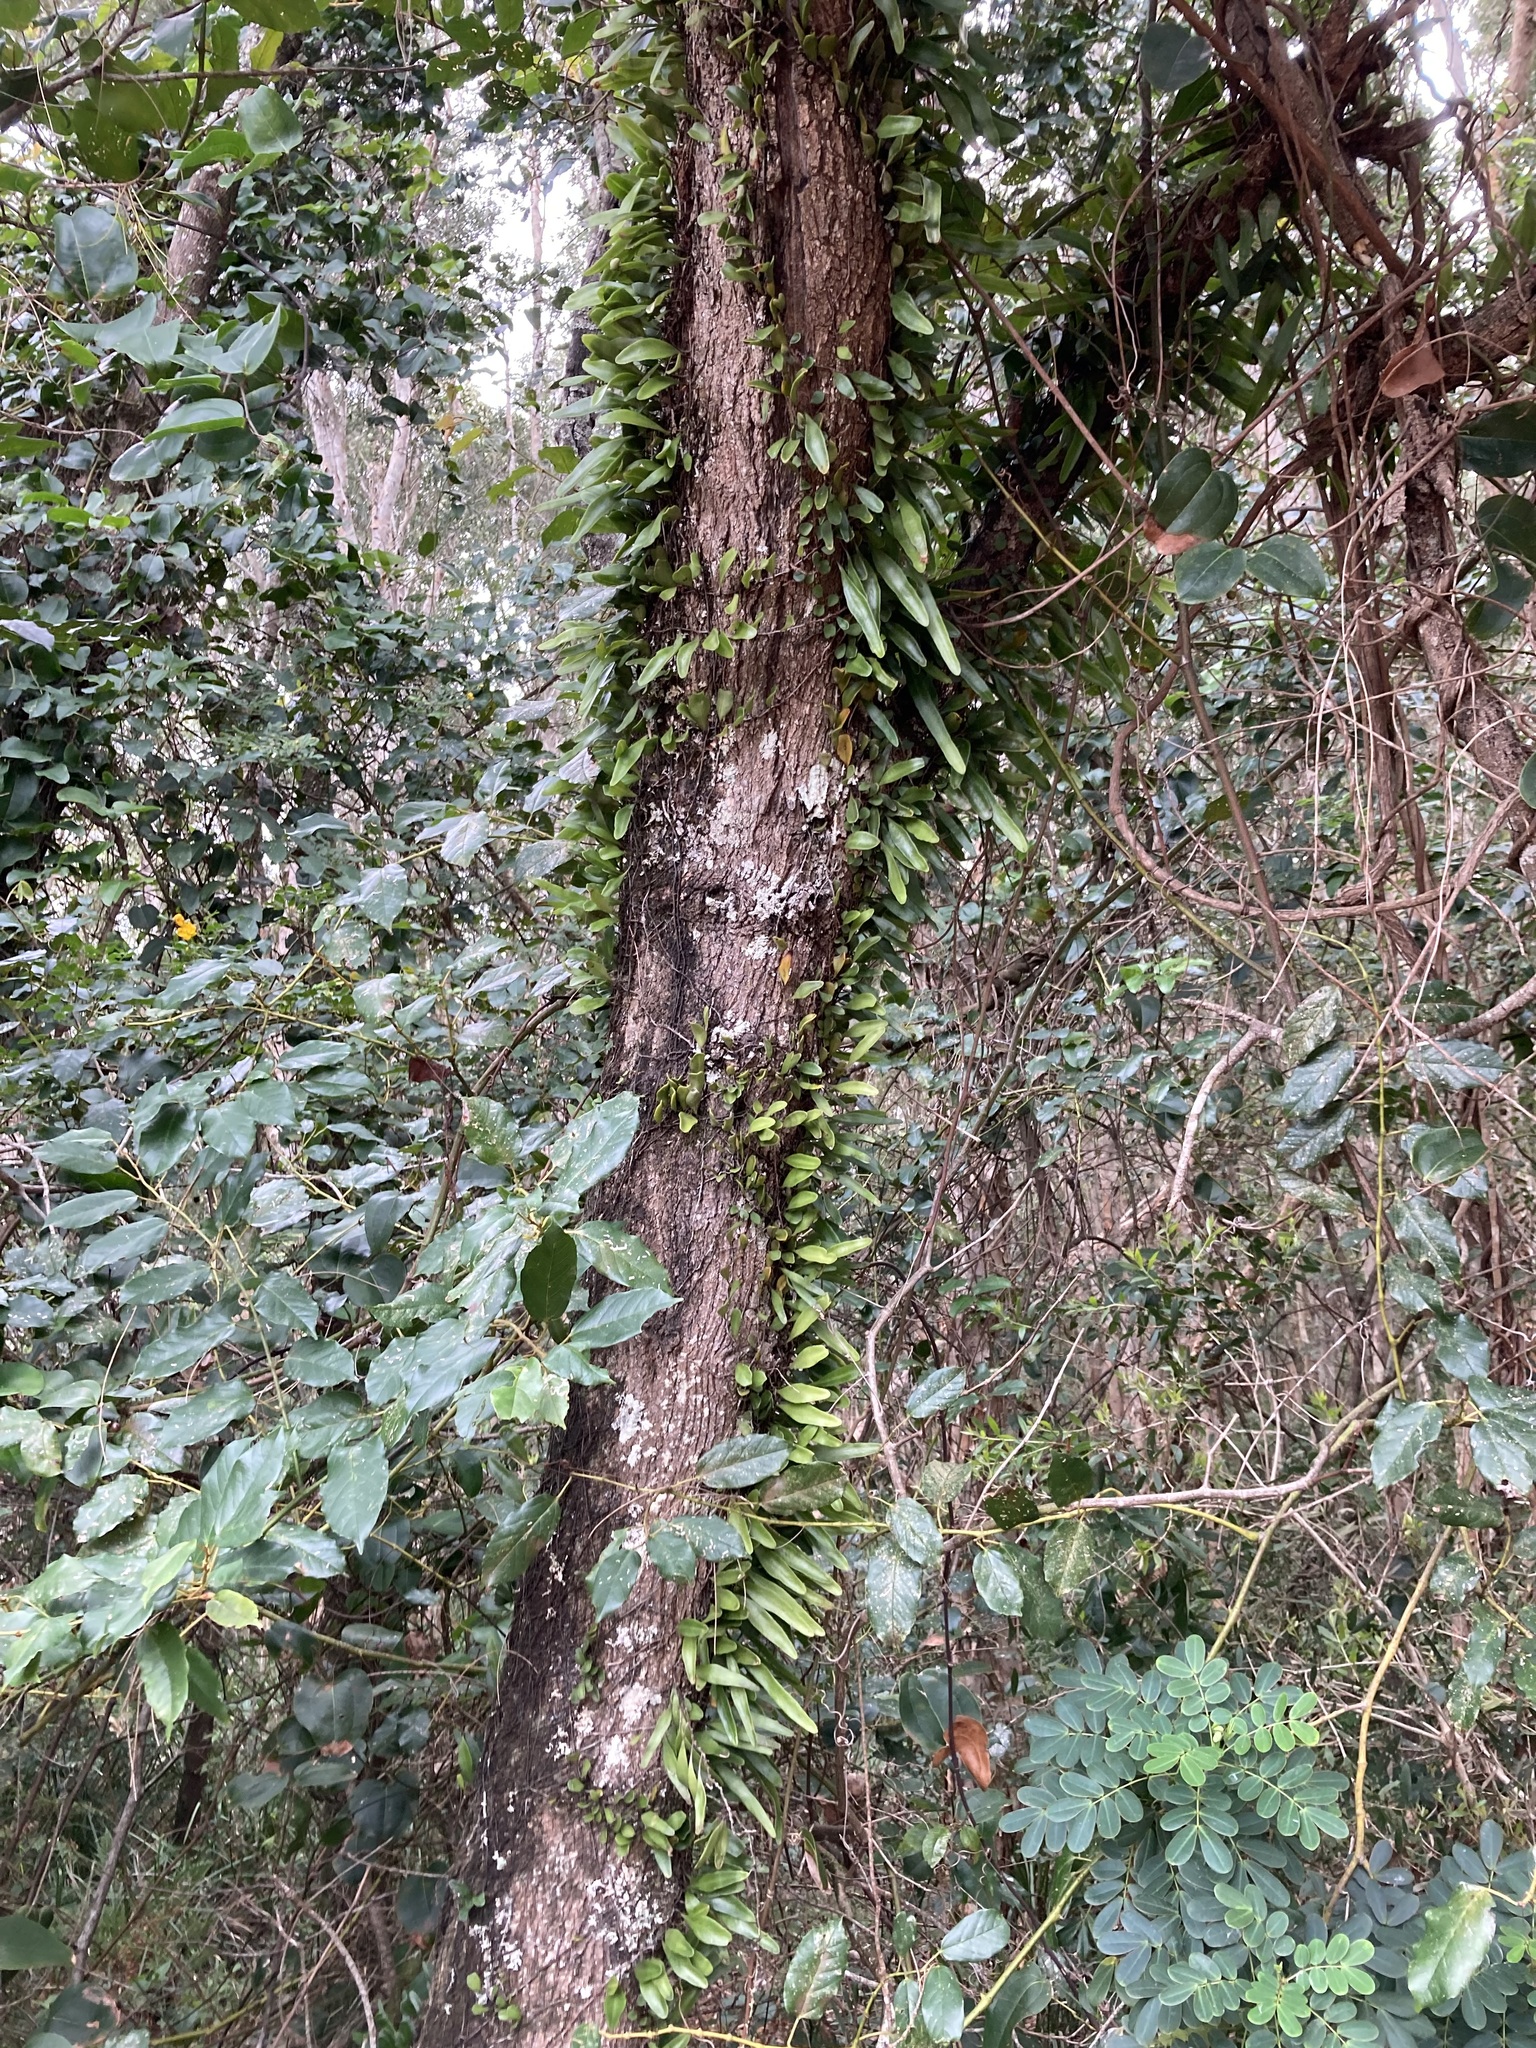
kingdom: Plantae
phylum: Tracheophyta
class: Polypodiopsida
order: Polypodiales
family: Polypodiaceae
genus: Pyrrosia
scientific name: Pyrrosia confluens
